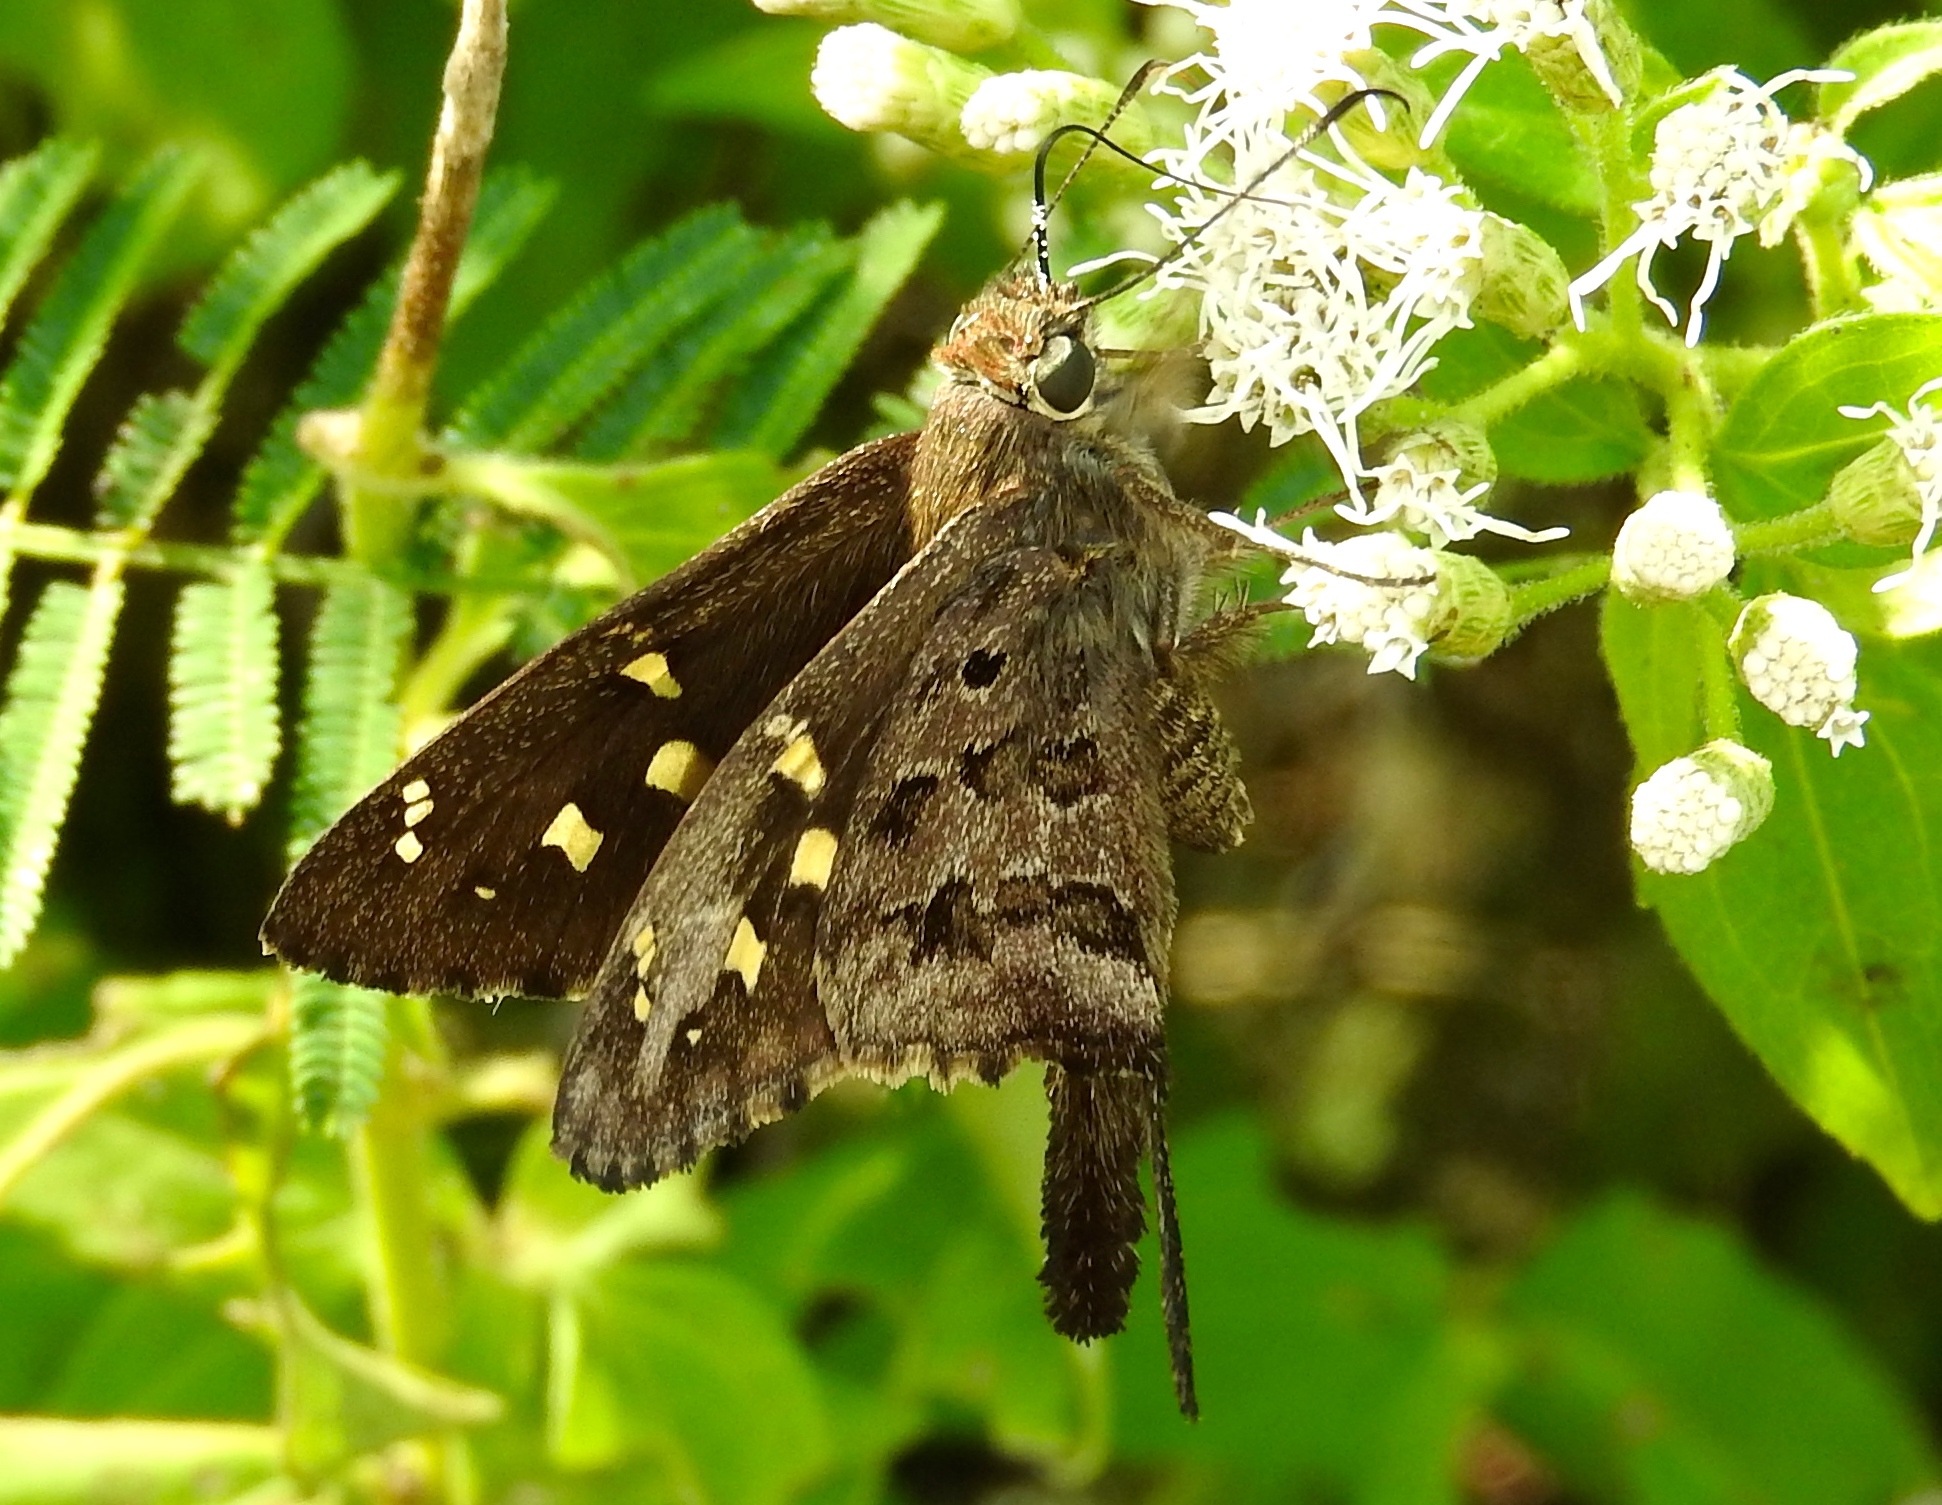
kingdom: Animalia
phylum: Arthropoda
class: Insecta
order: Lepidoptera
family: Hesperiidae
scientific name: Hesperiidae
